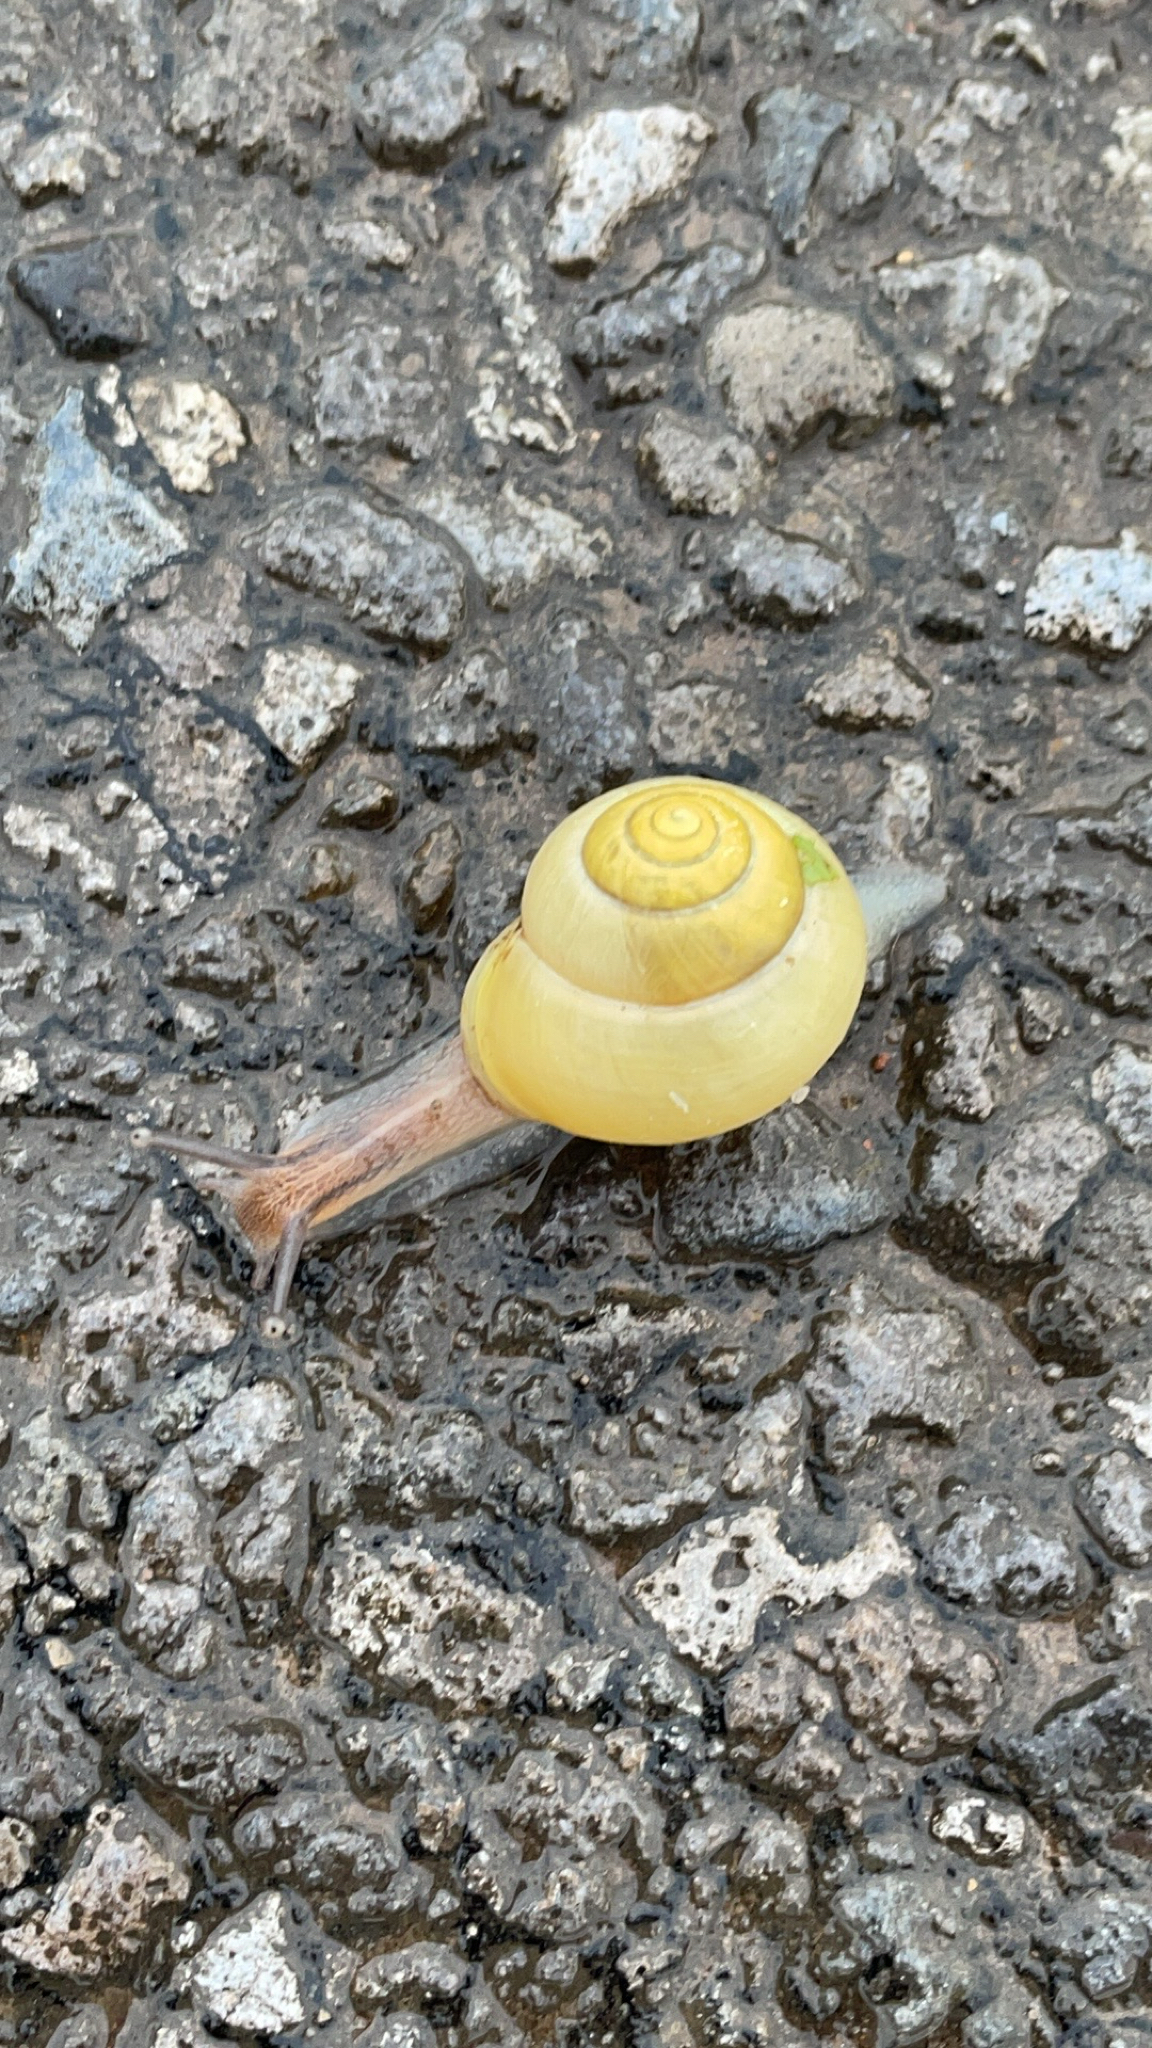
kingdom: Animalia
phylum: Mollusca
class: Gastropoda
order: Stylommatophora
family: Helicidae
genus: Cepaea
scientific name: Cepaea hortensis
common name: White-lip gardensnail
